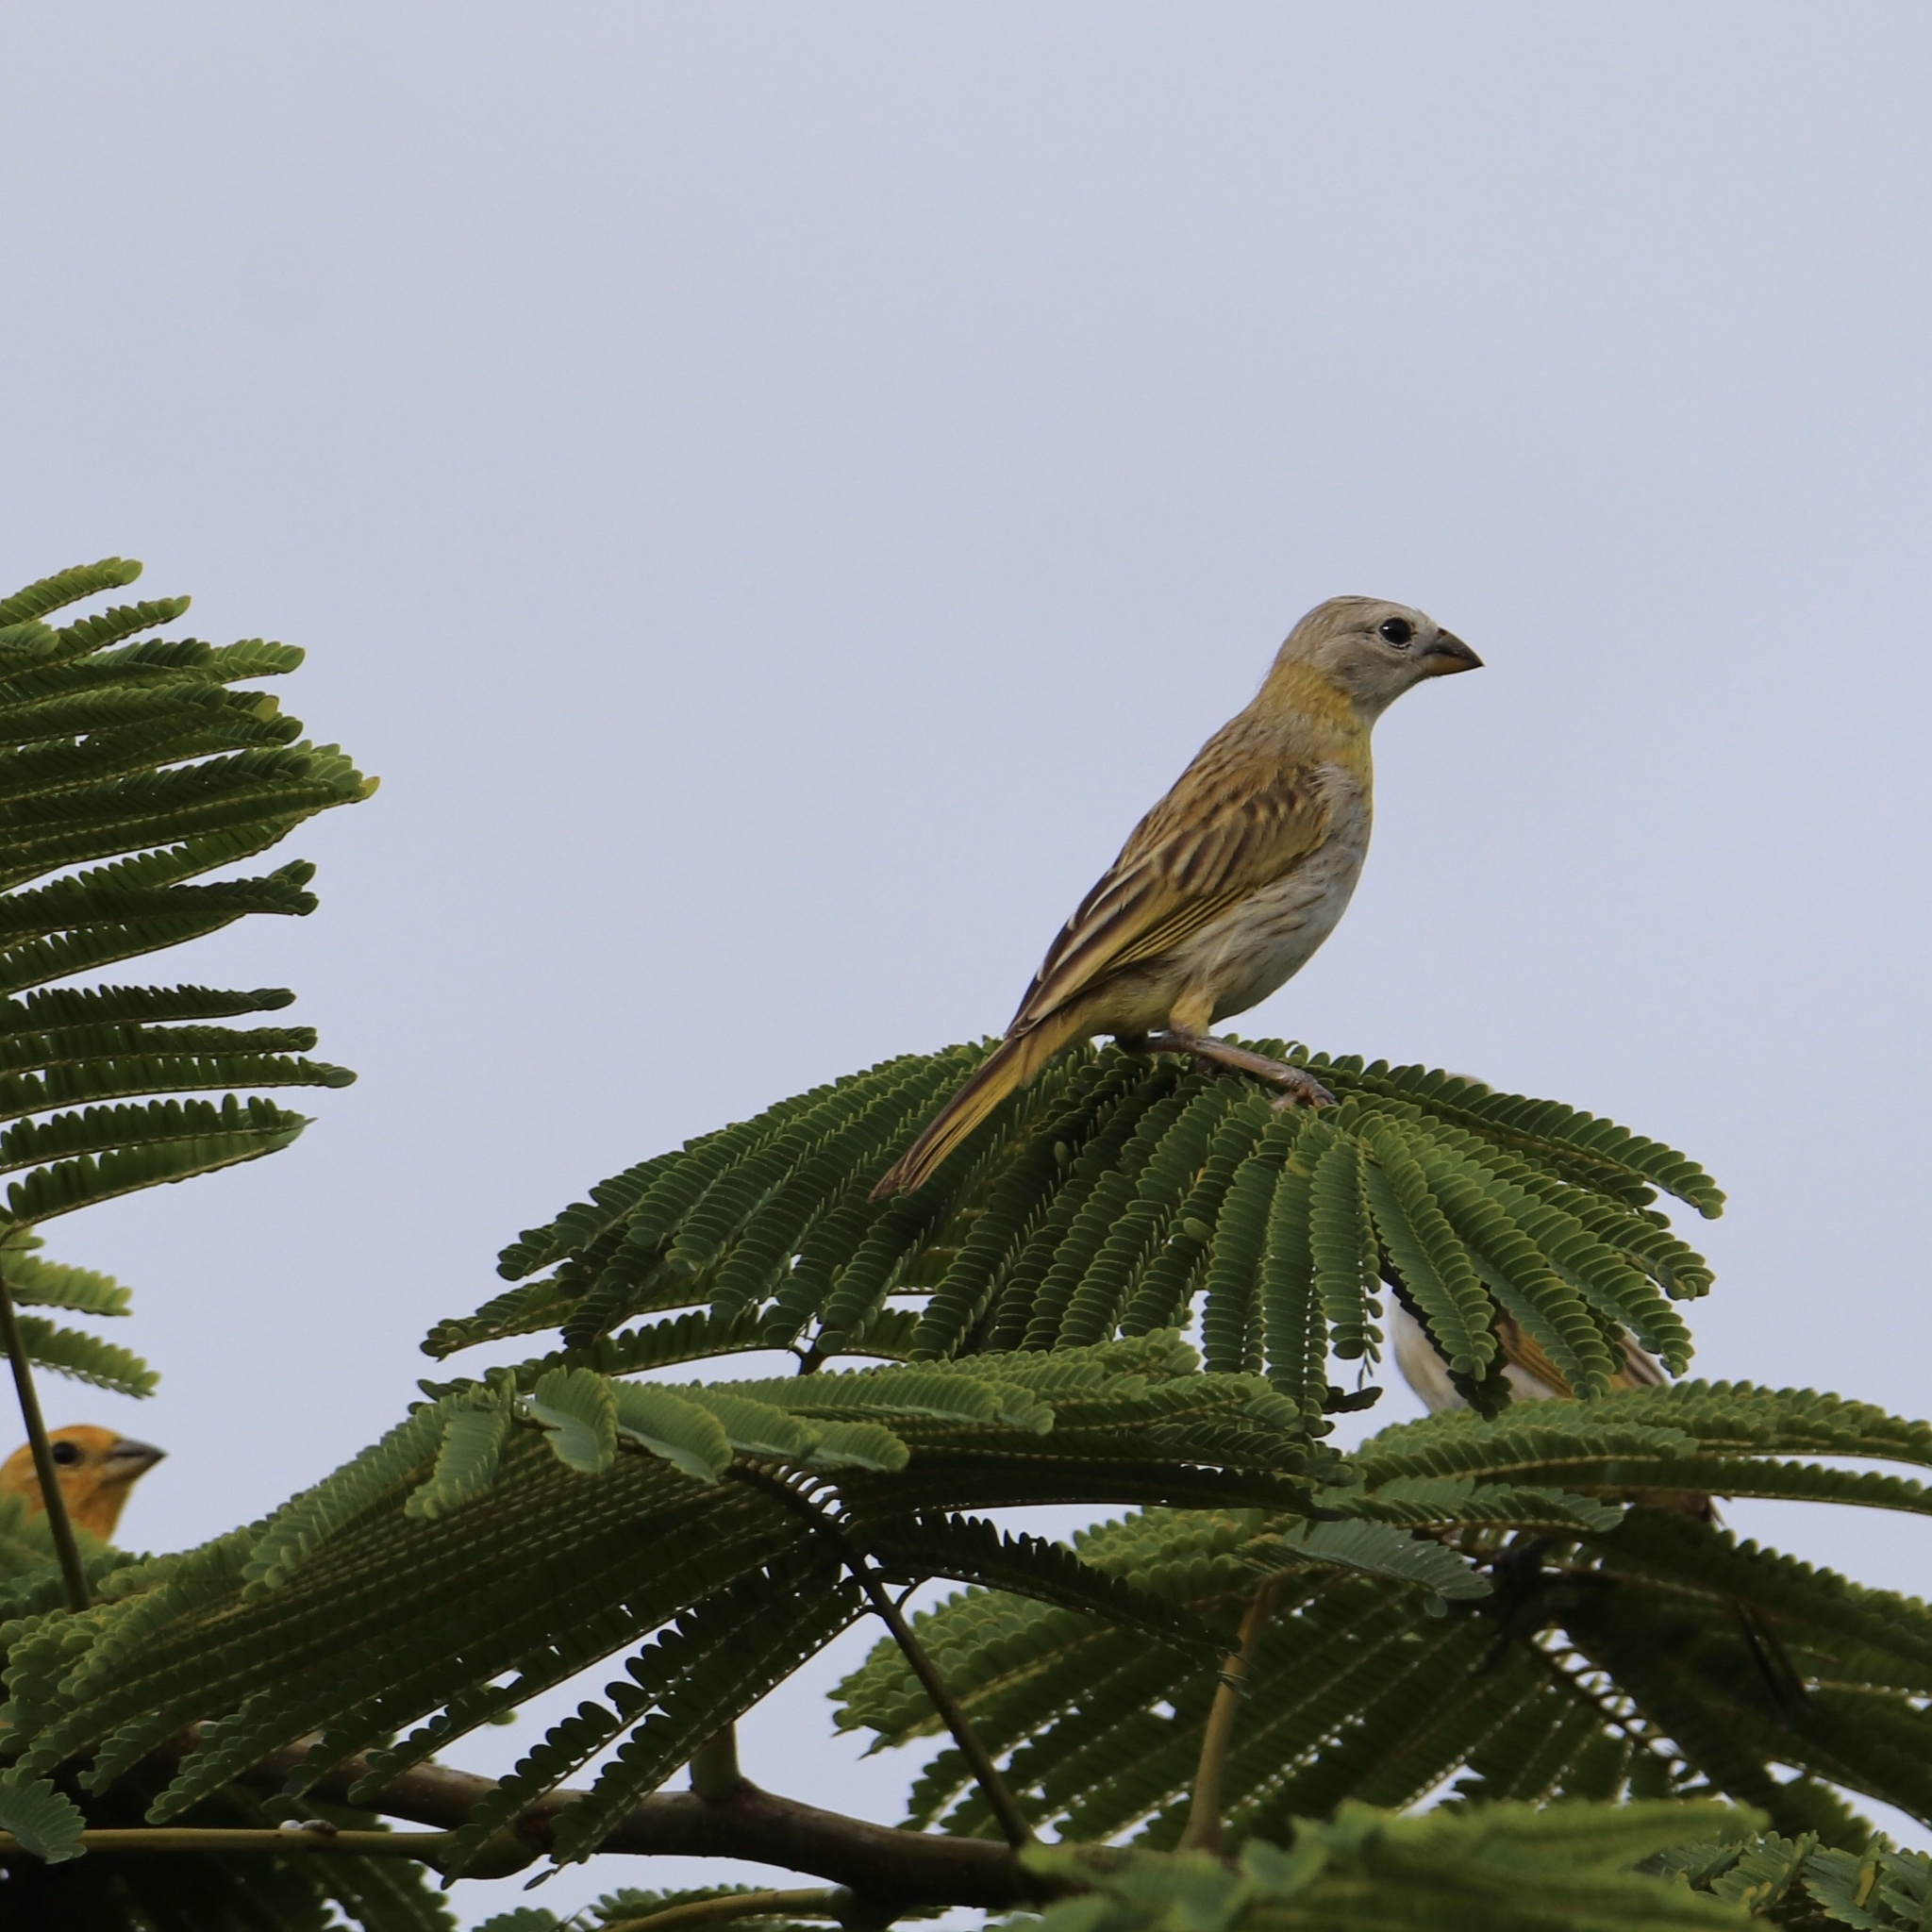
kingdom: Animalia
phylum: Chordata
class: Aves
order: Passeriformes
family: Thraupidae
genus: Sicalis
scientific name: Sicalis flaveola
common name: Saffron finch
